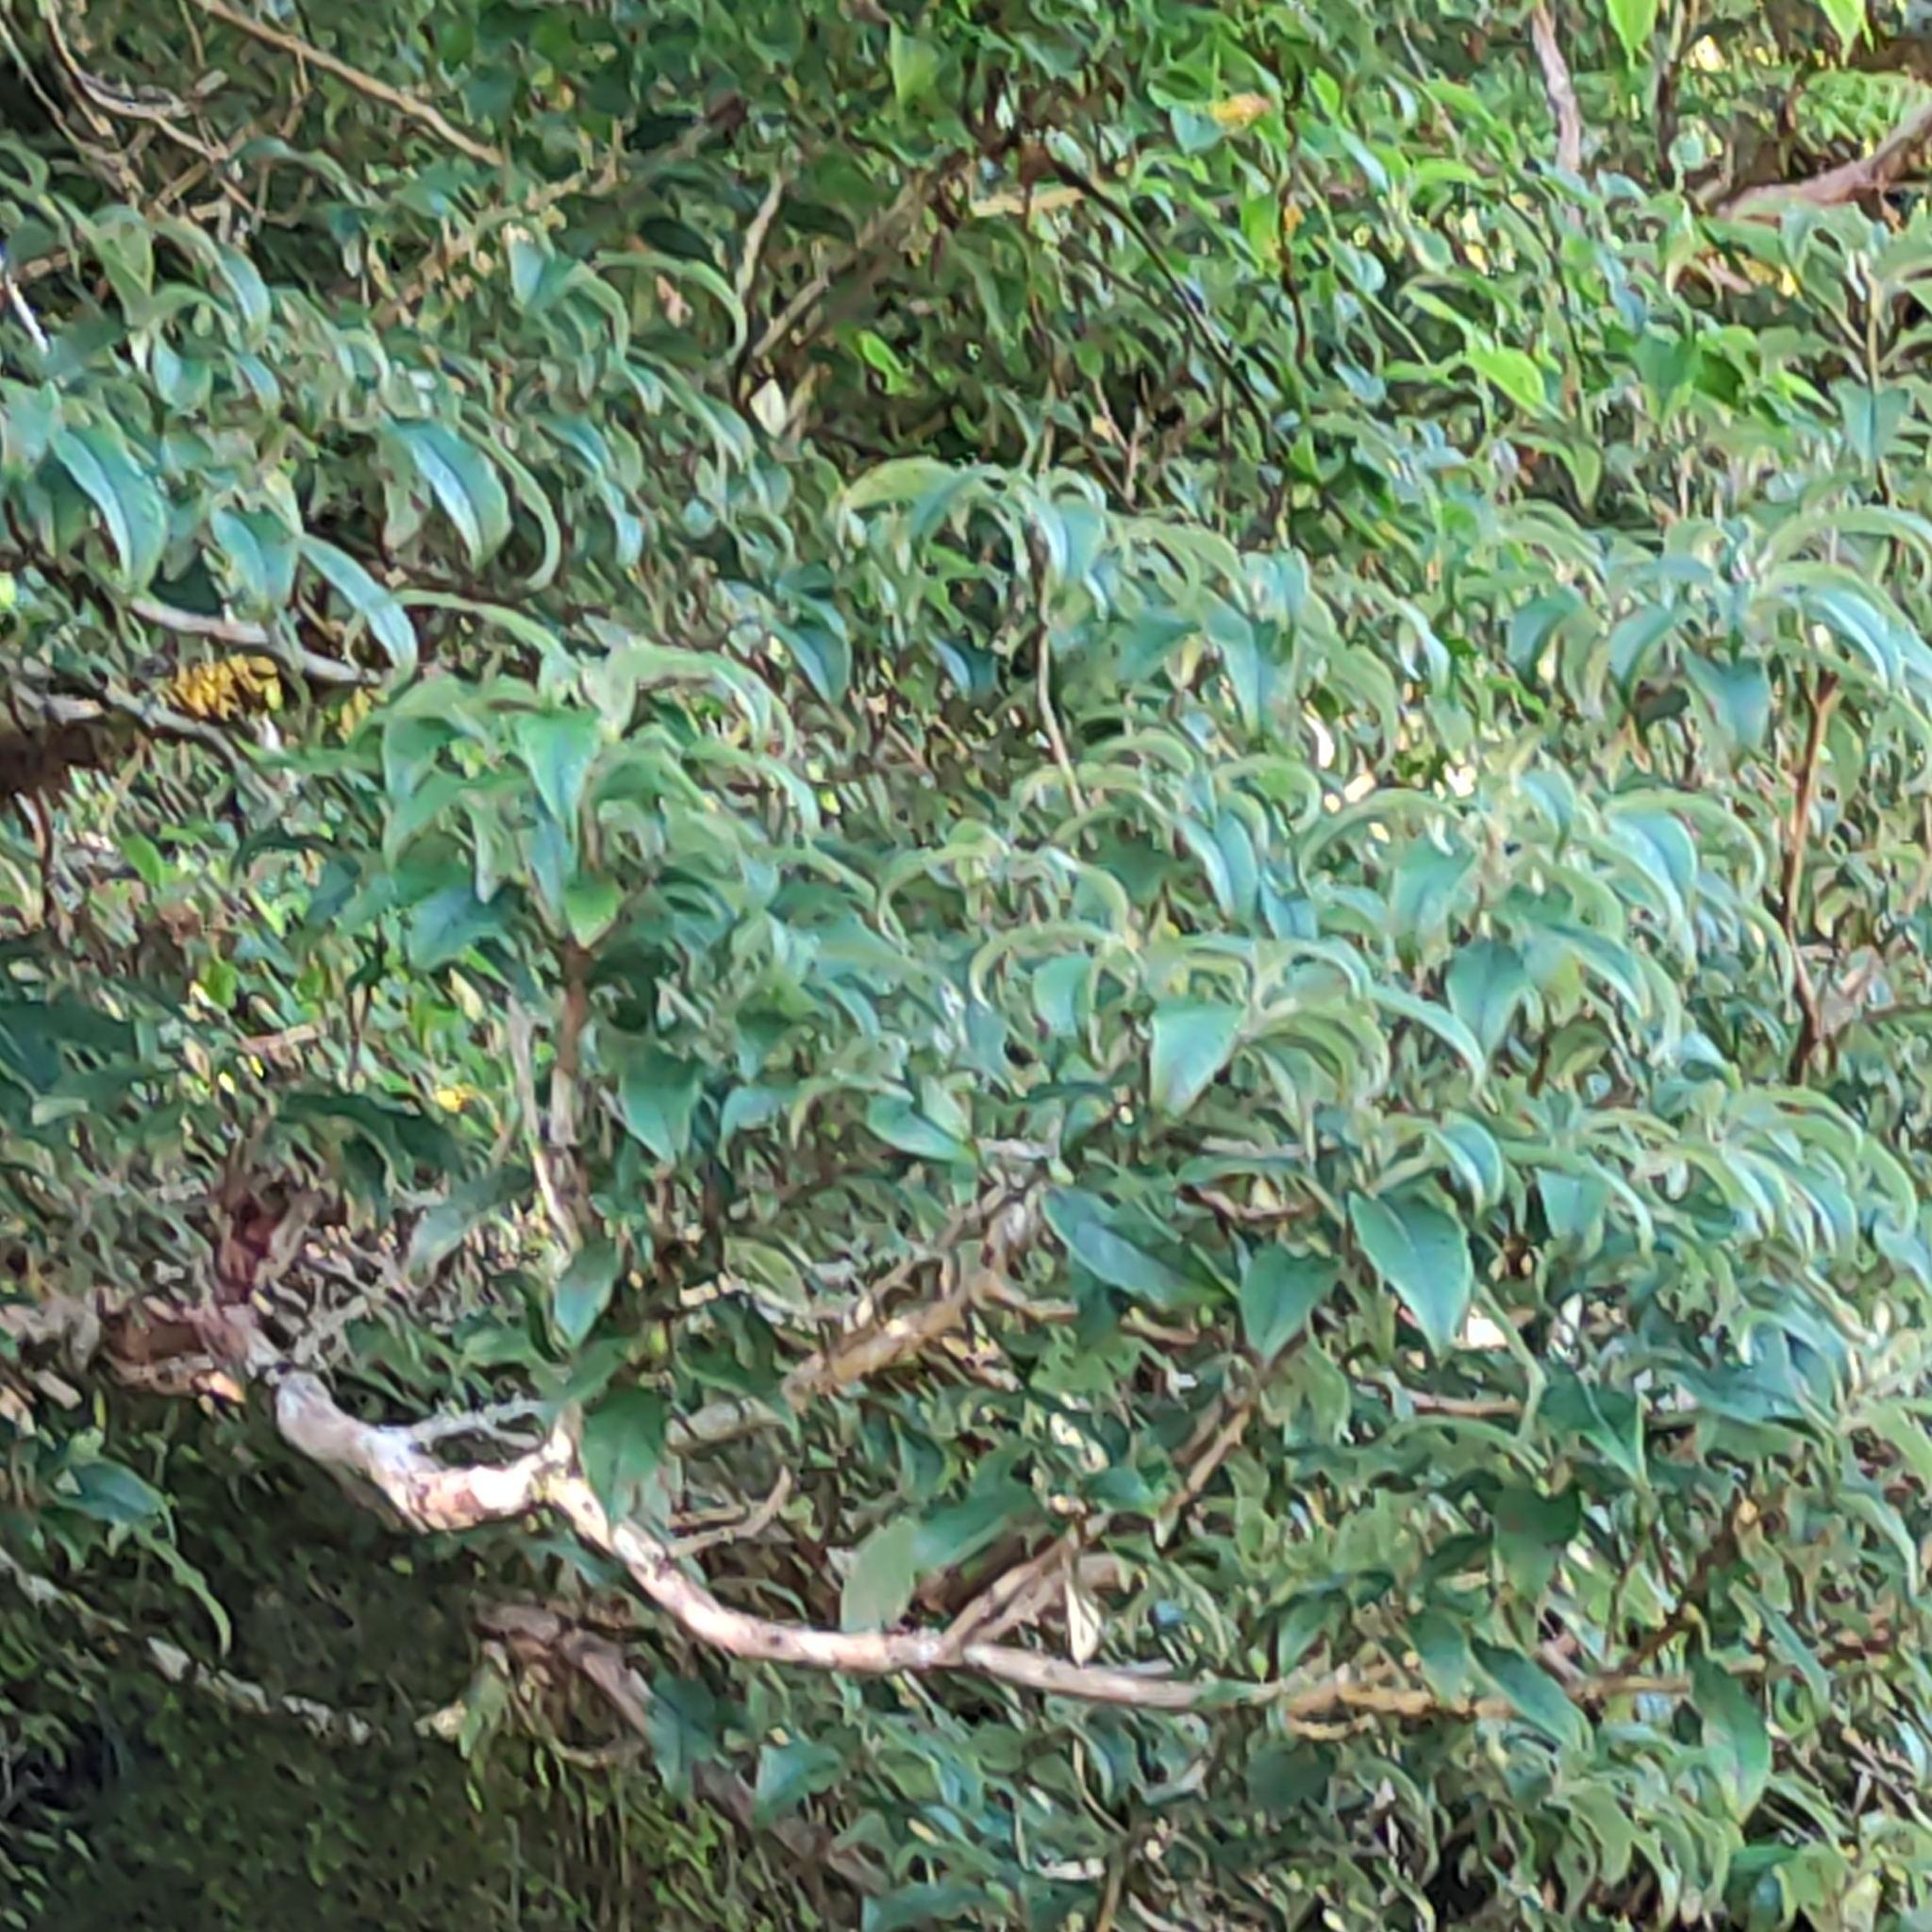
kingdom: Plantae
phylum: Tracheophyta
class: Magnoliopsida
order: Myrtales
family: Onagraceae
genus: Fuchsia
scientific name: Fuchsia excorticata
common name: Tree fuchsia
